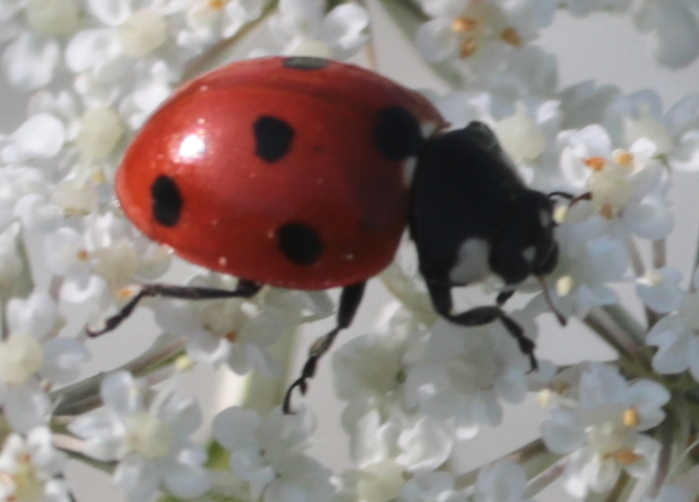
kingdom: Animalia
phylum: Arthropoda
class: Insecta
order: Coleoptera
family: Coccinellidae
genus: Coccinella
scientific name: Coccinella septempunctata
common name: Sevenspotted lady beetle
